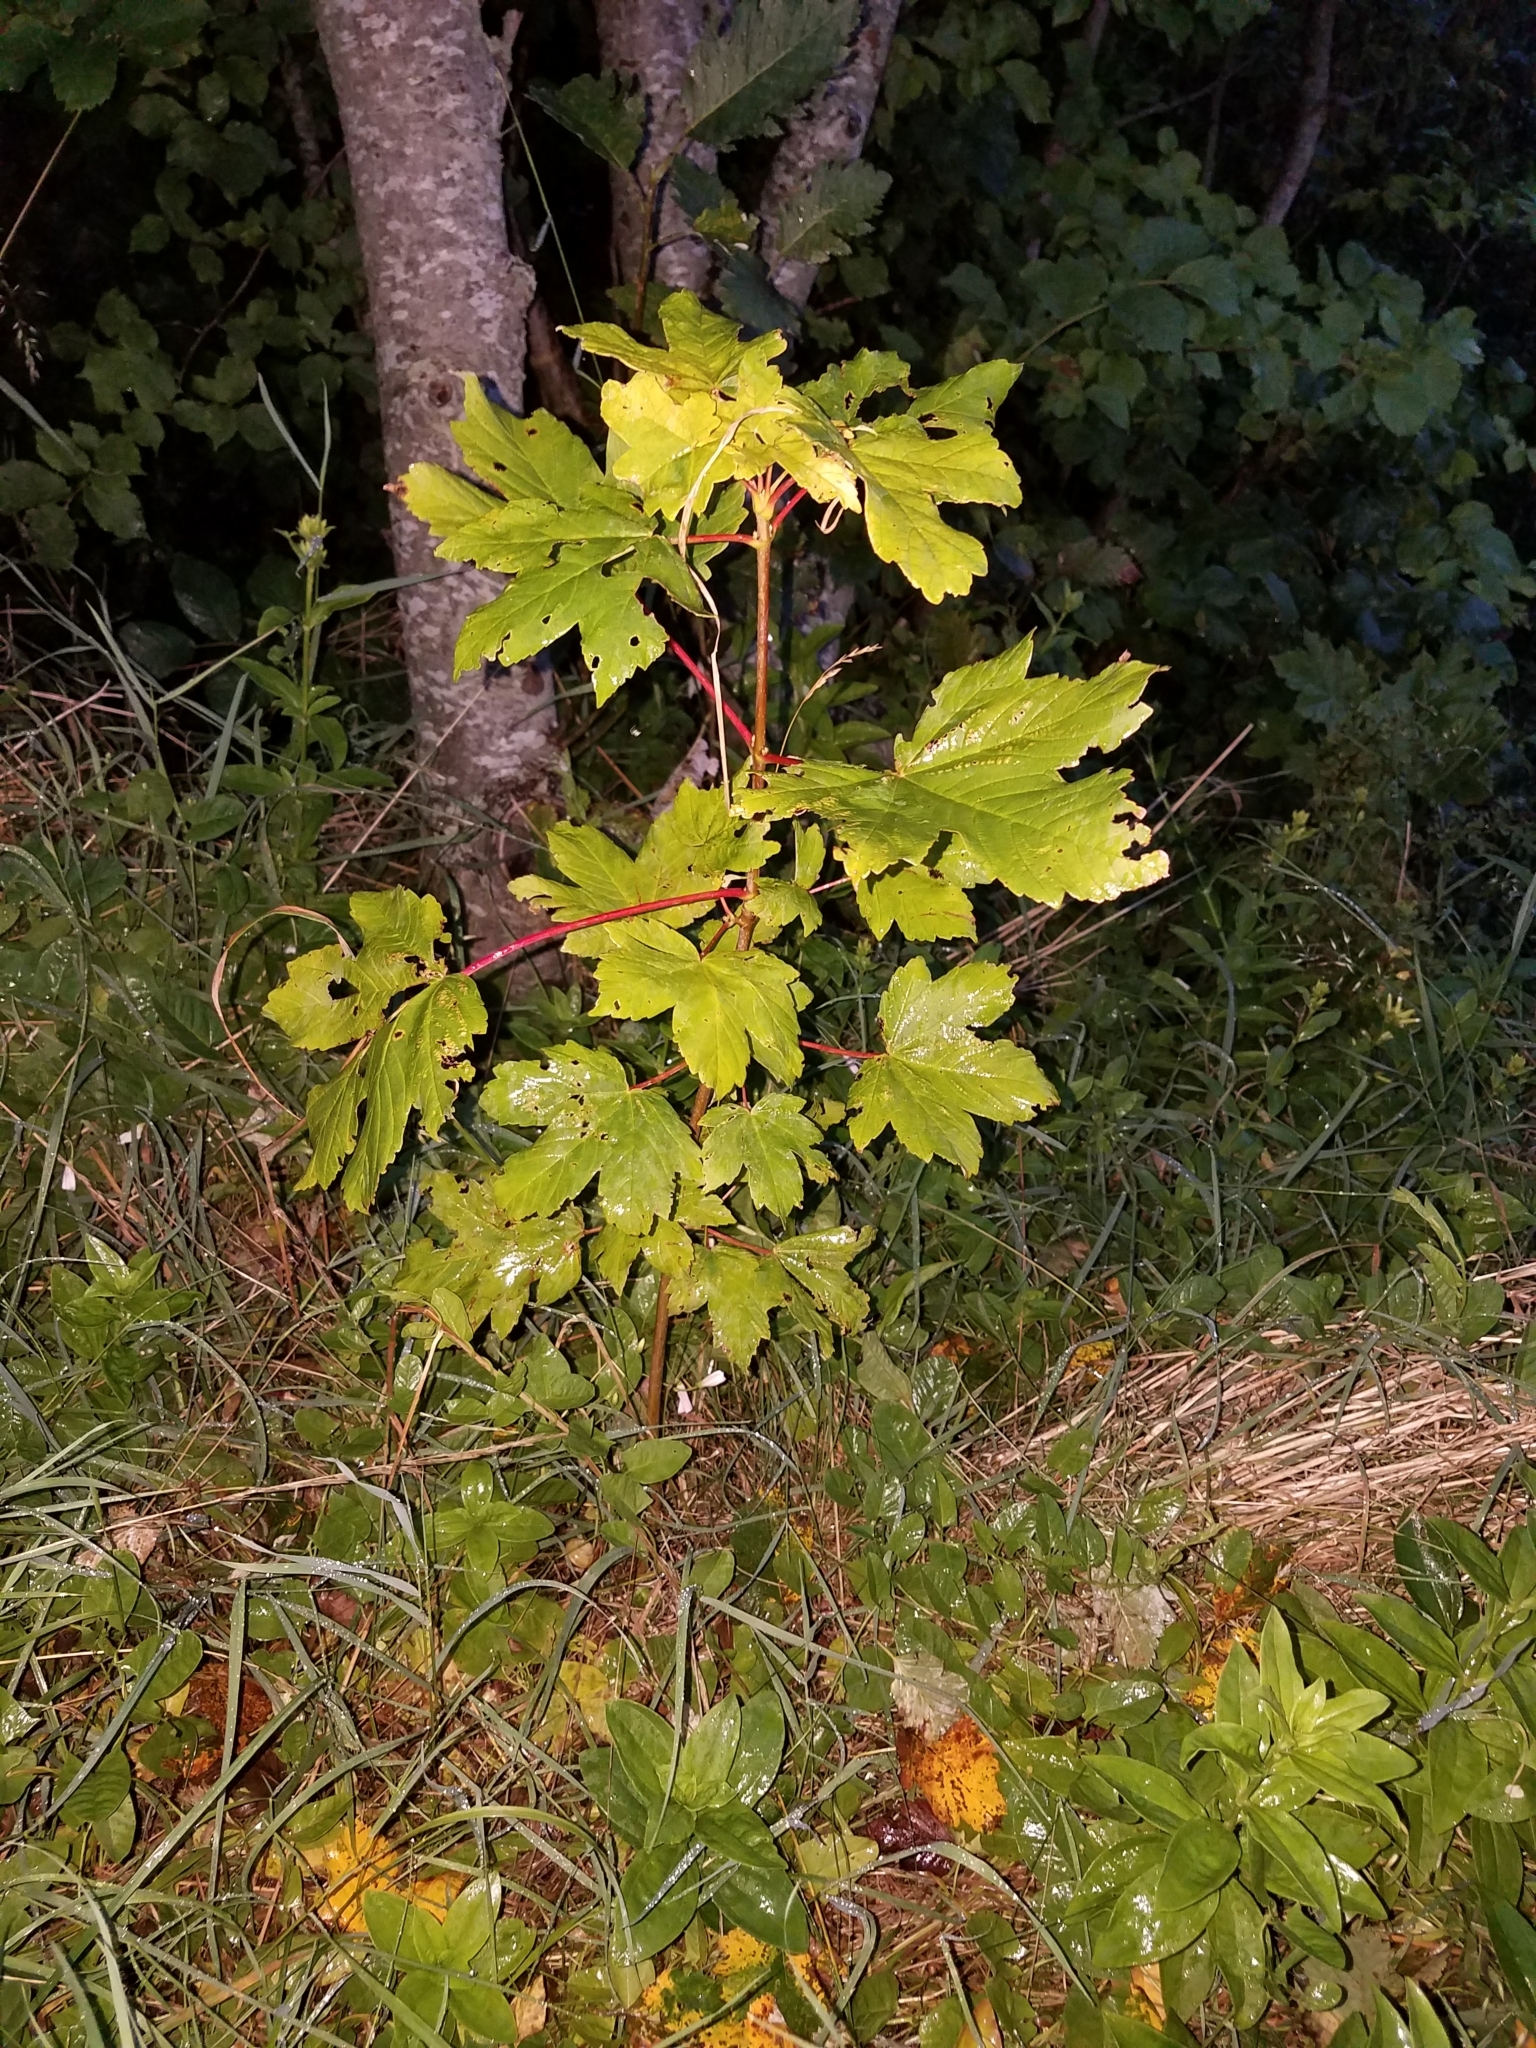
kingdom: Plantae
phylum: Tracheophyta
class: Magnoliopsida
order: Sapindales
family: Sapindaceae
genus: Acer
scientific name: Acer pseudoplatanus
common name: Sycamore
